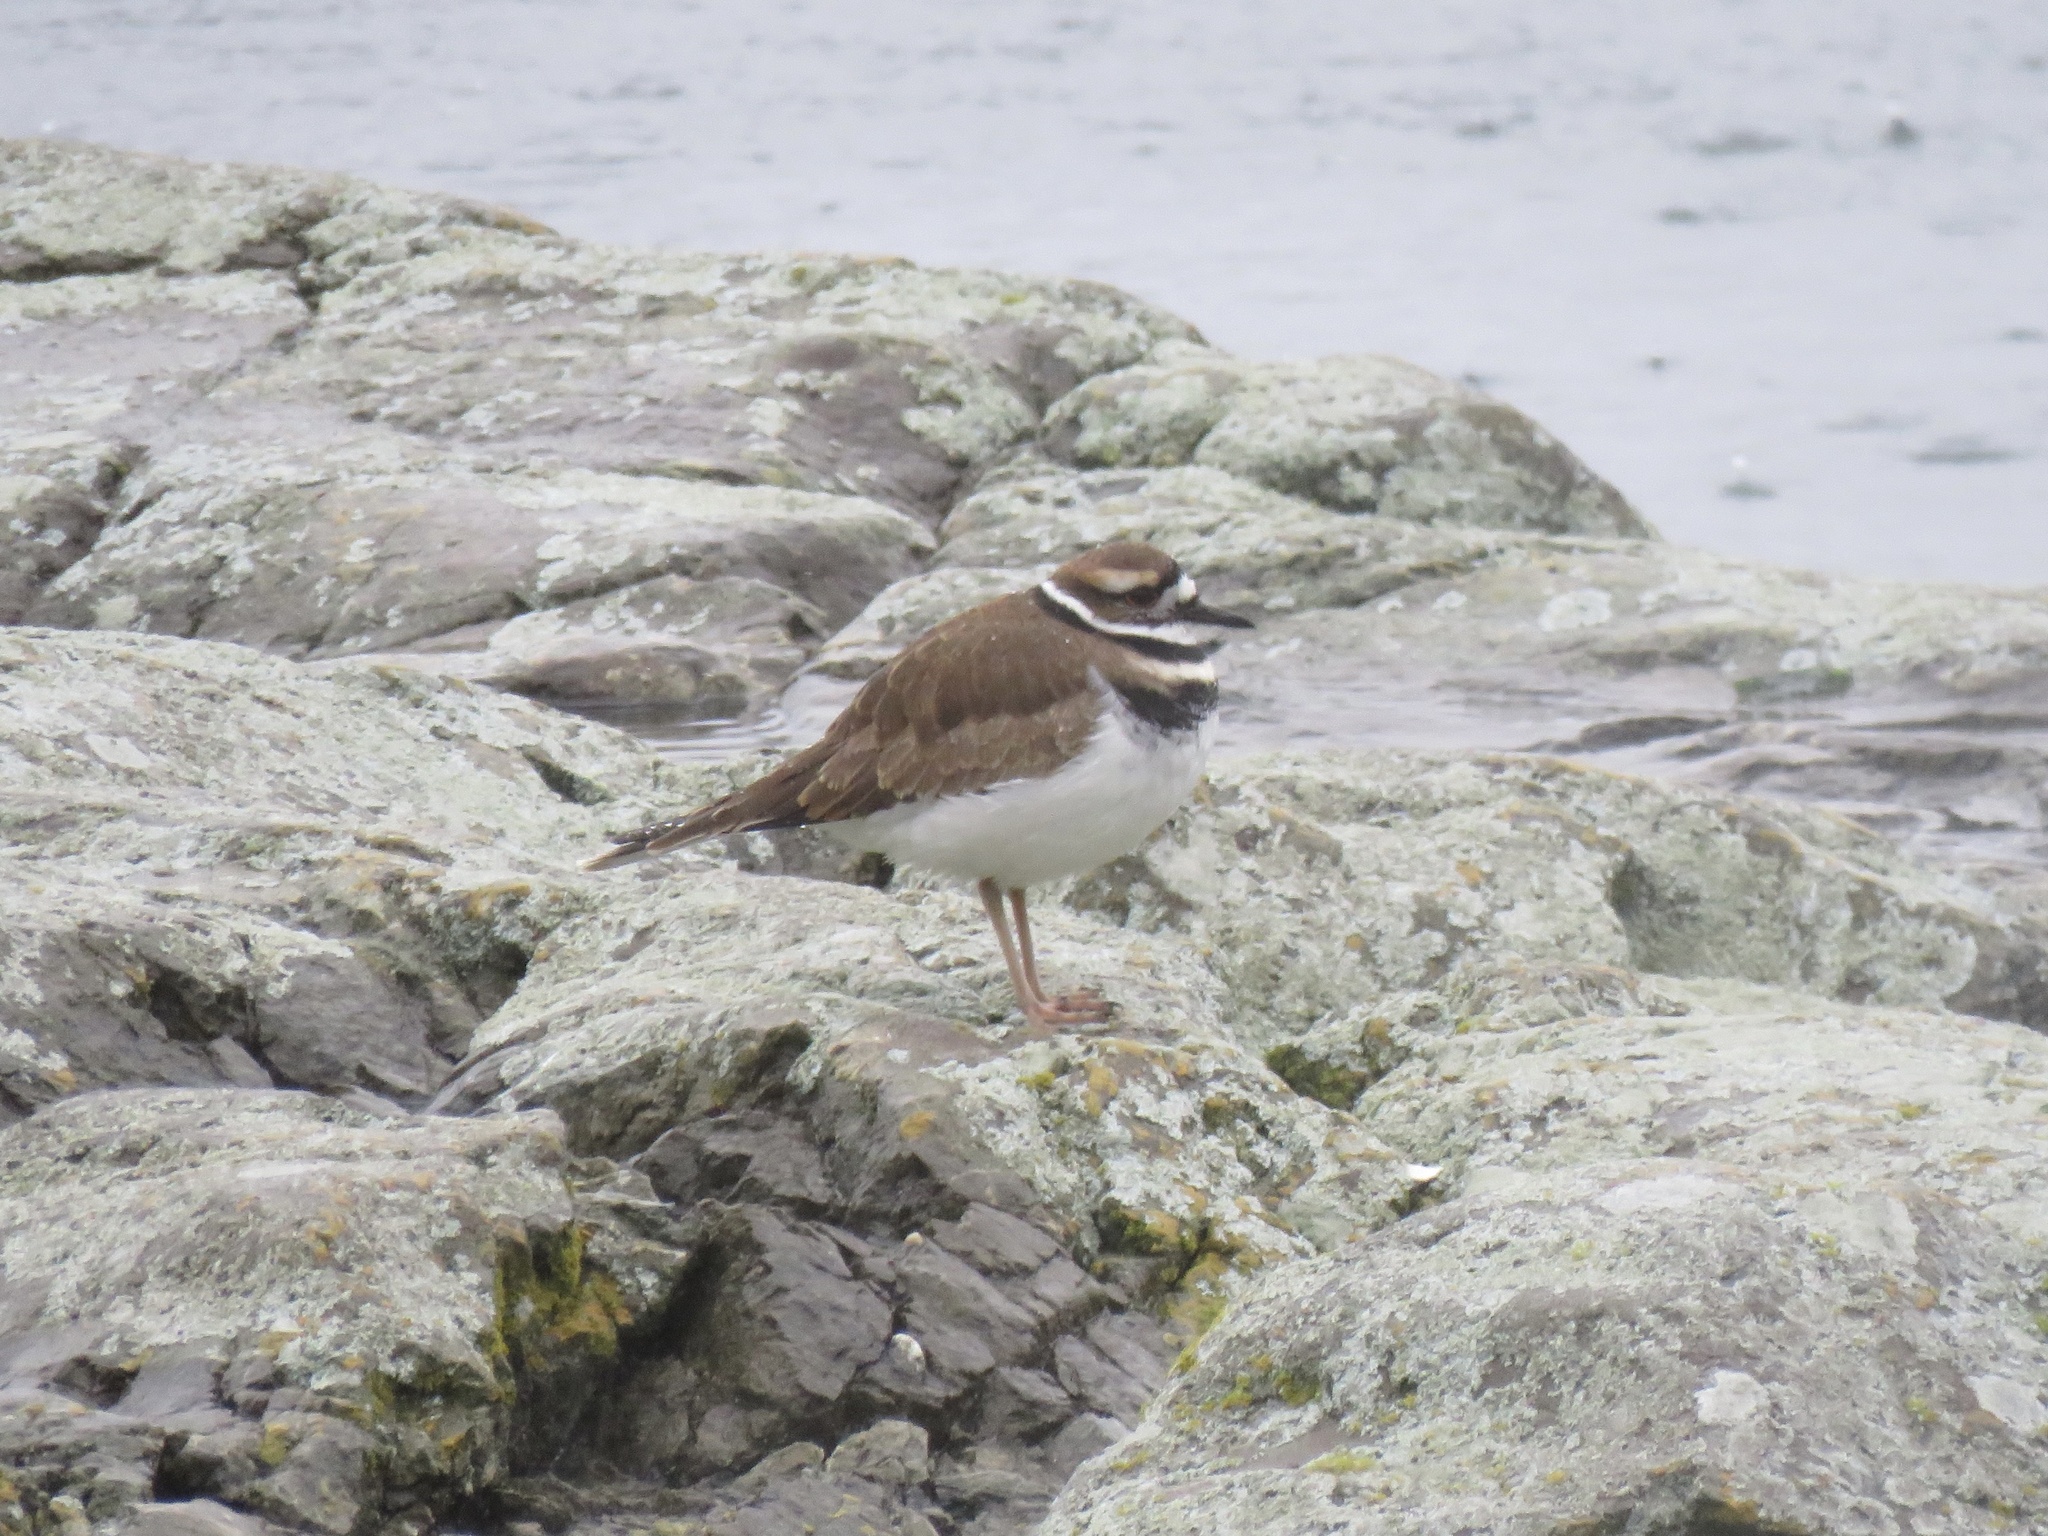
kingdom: Animalia
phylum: Chordata
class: Aves
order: Charadriiformes
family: Charadriidae
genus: Charadrius
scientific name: Charadrius vociferus
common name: Killdeer
